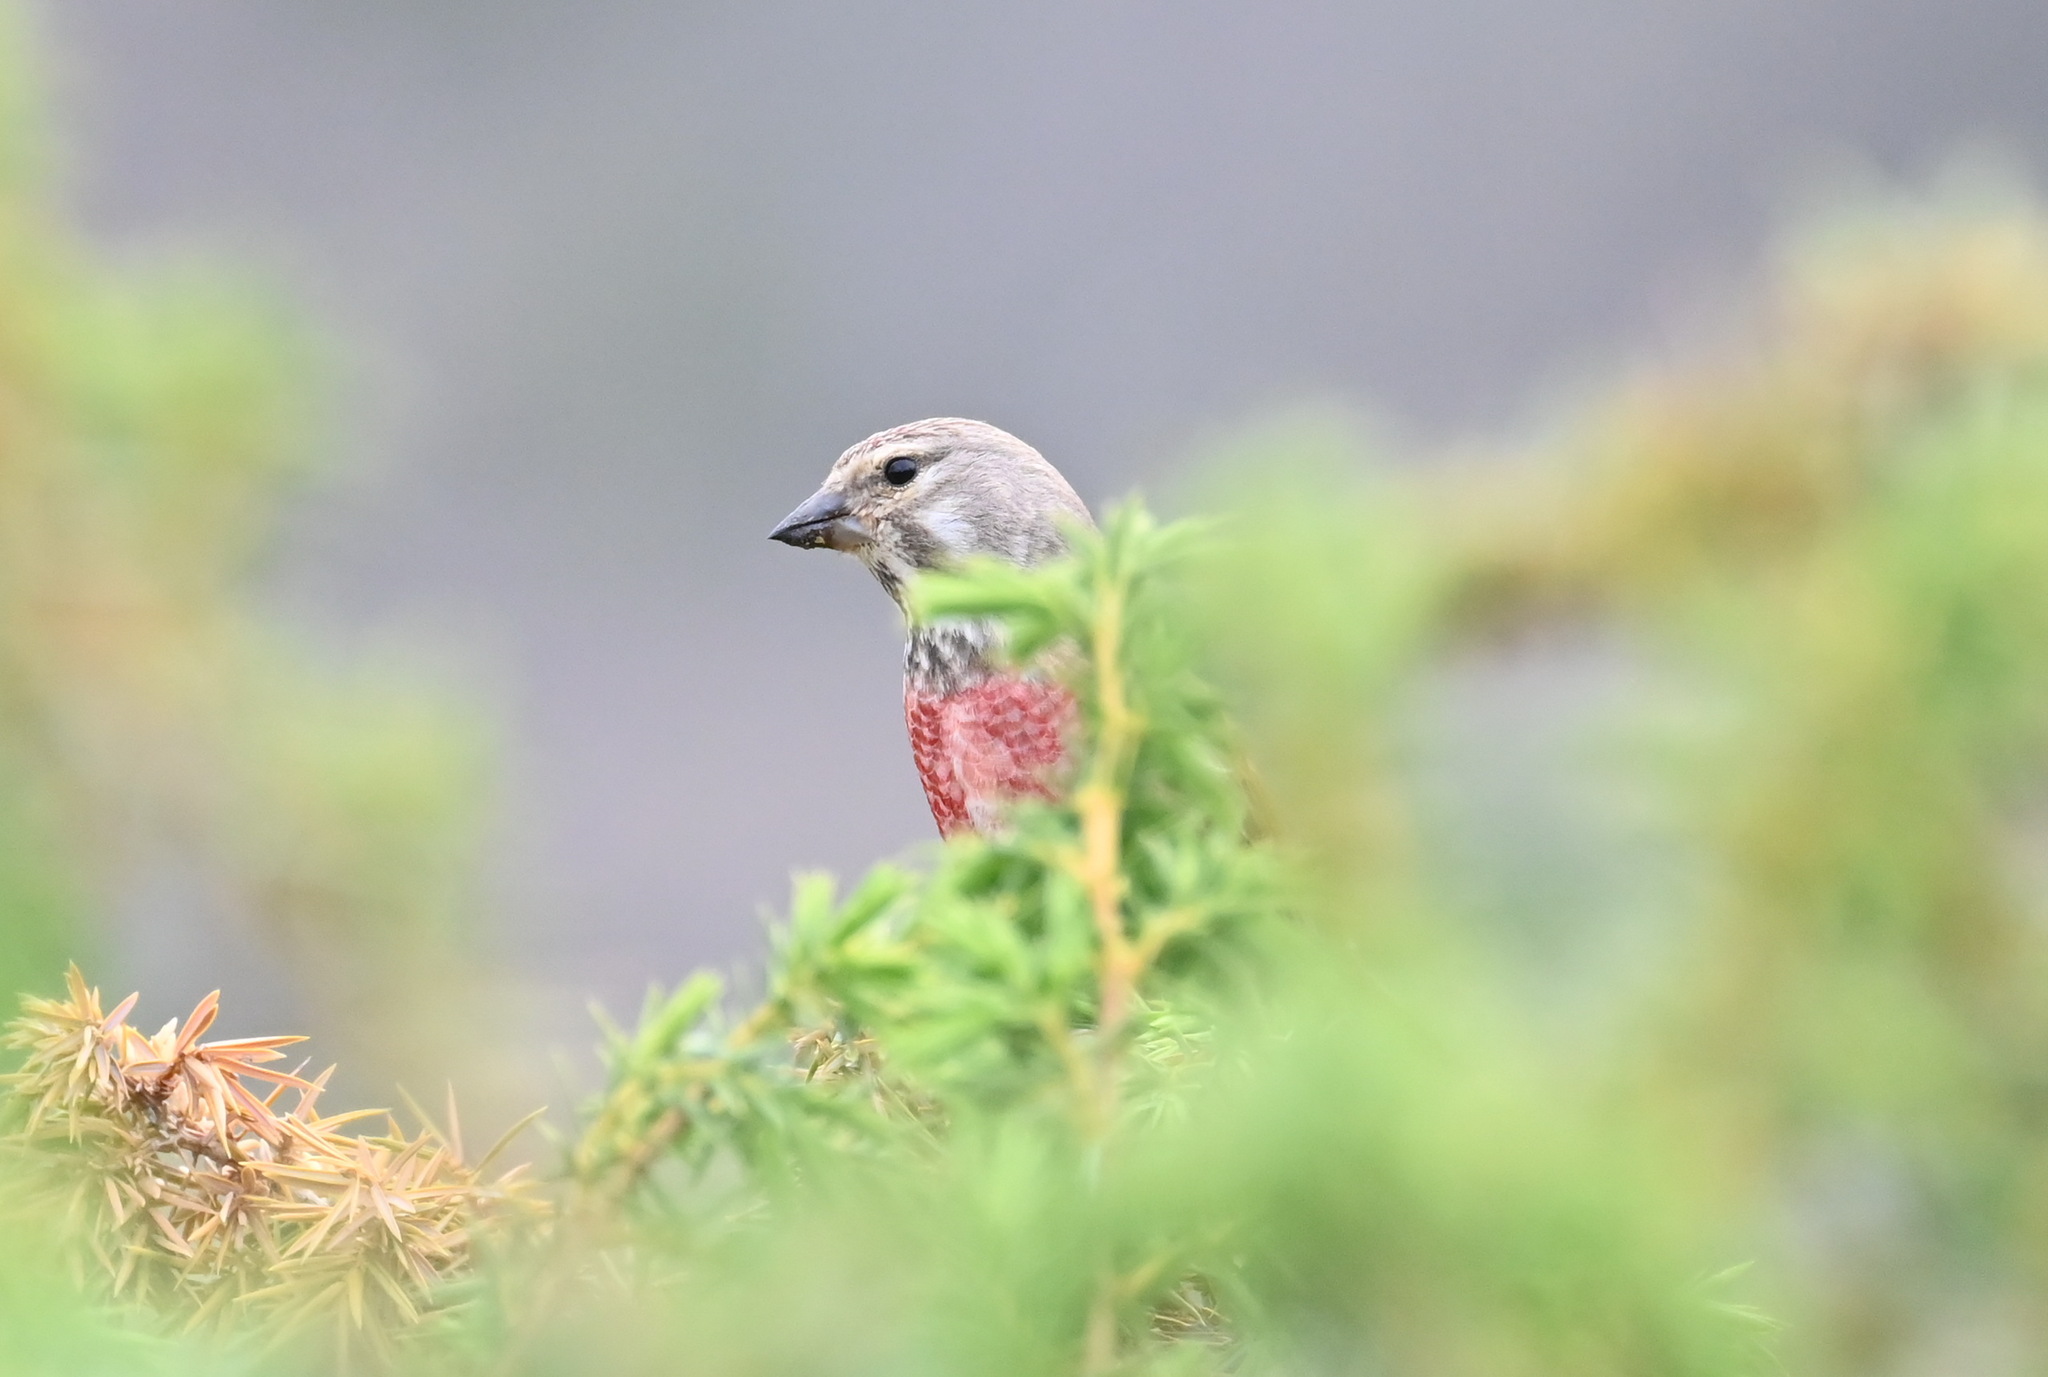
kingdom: Animalia
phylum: Chordata
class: Aves
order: Passeriformes
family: Fringillidae
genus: Linaria
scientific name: Linaria cannabina
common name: Common linnet
